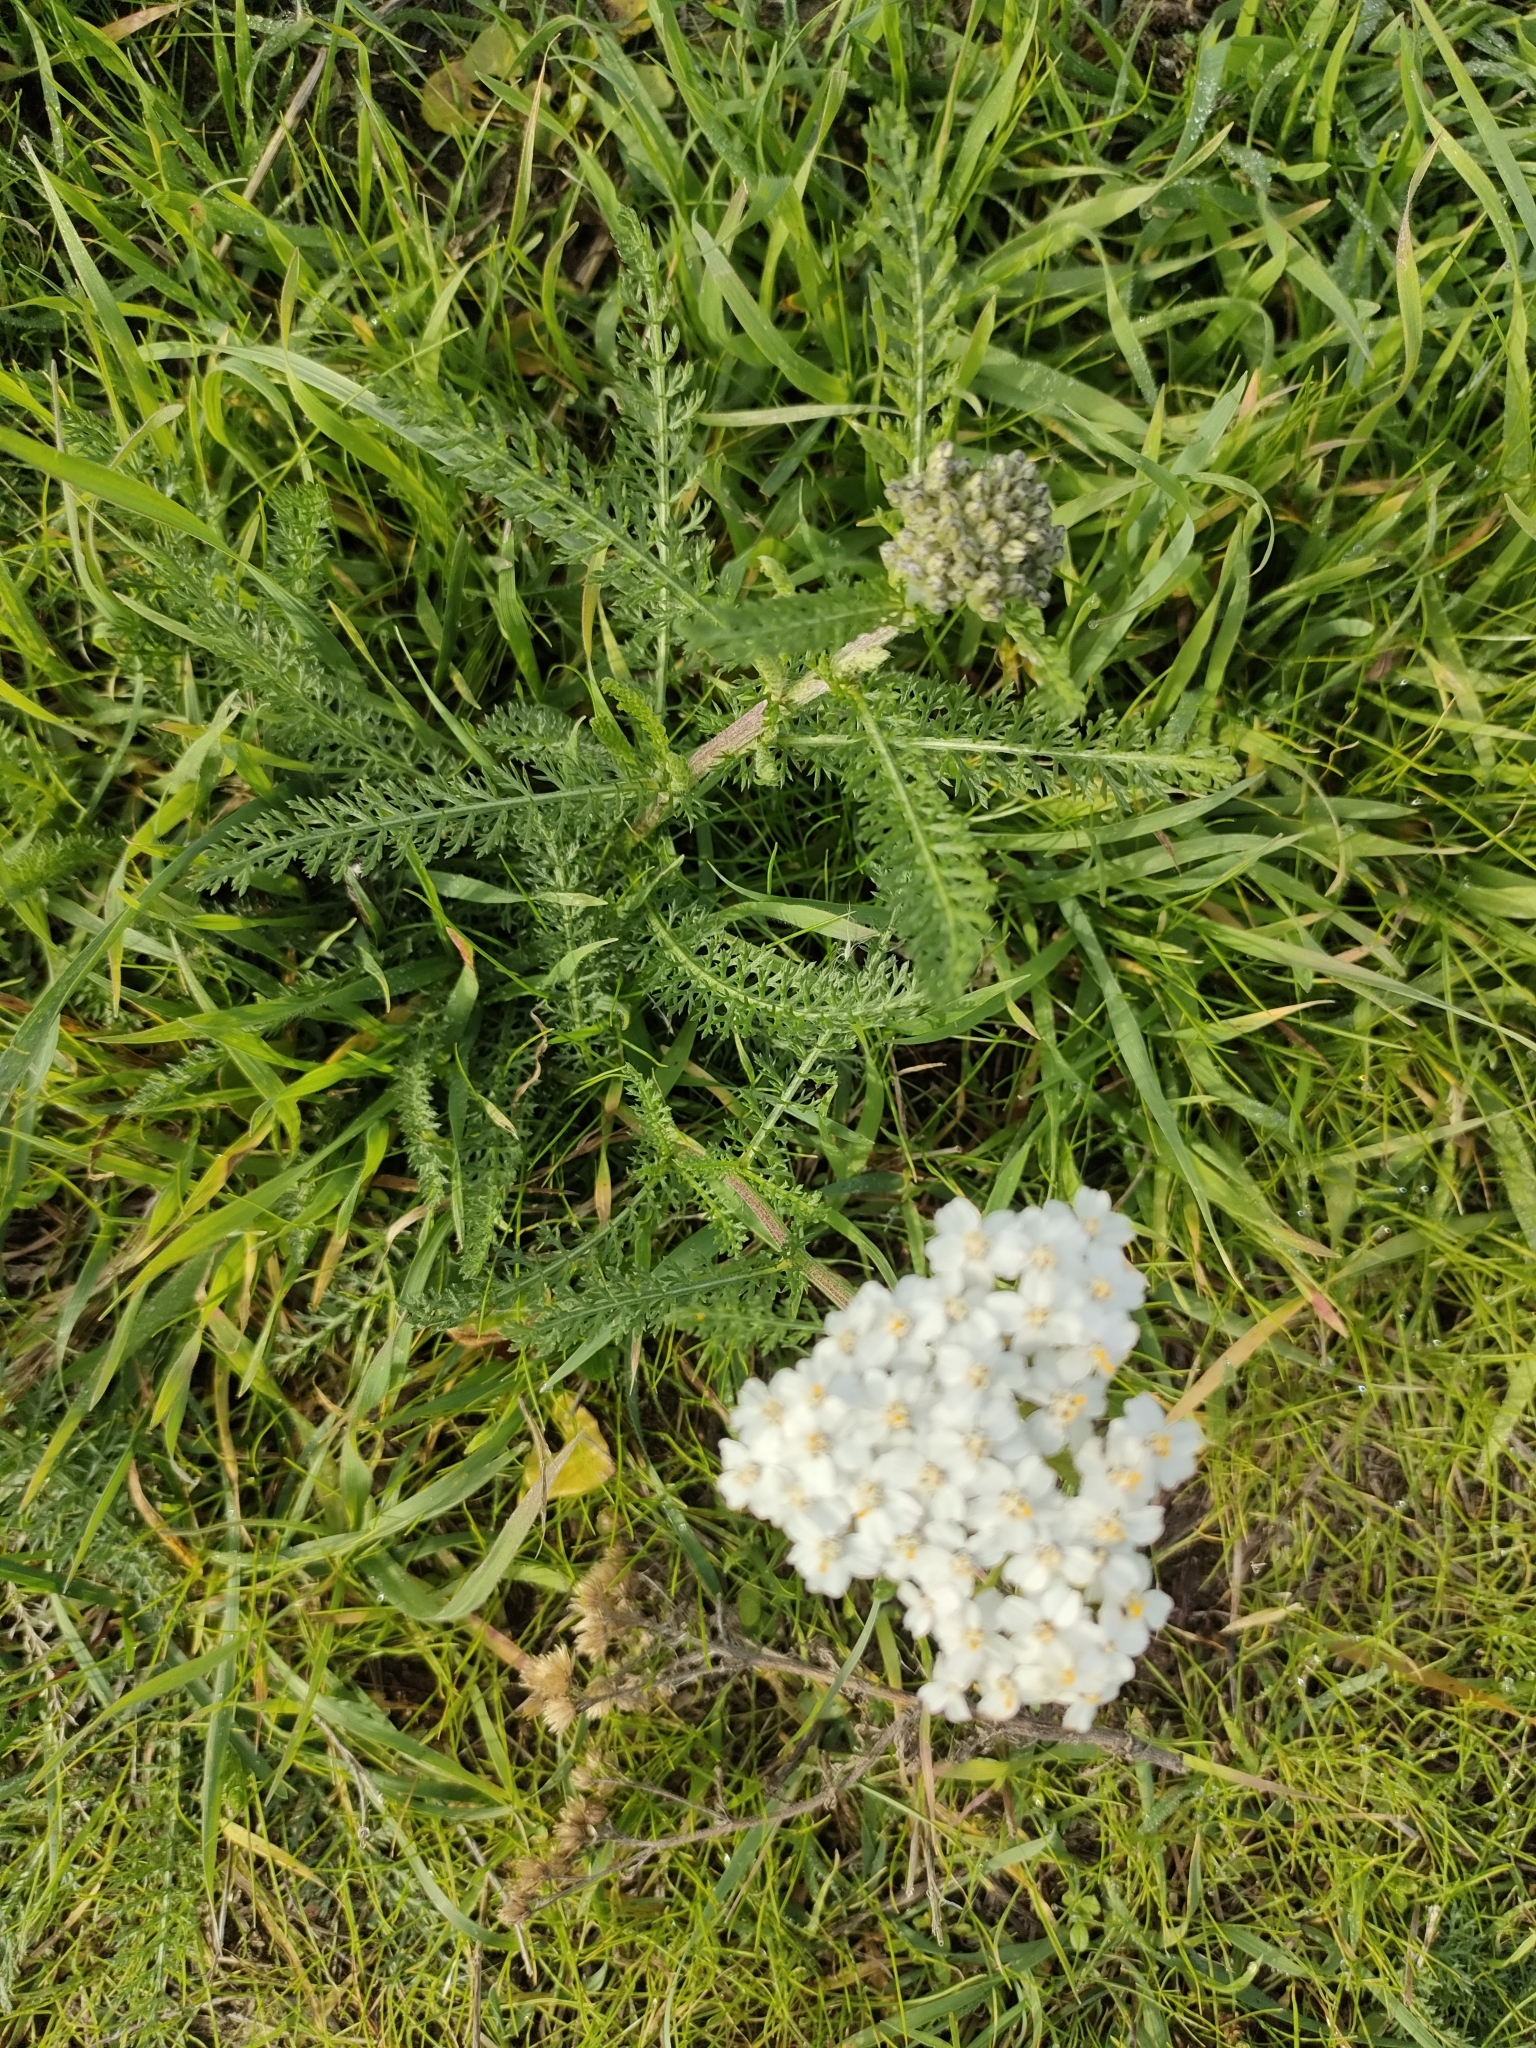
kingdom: Plantae
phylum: Tracheophyta
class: Magnoliopsida
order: Asterales
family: Asteraceae
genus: Achillea
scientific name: Achillea millefolium
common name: Yarrow
